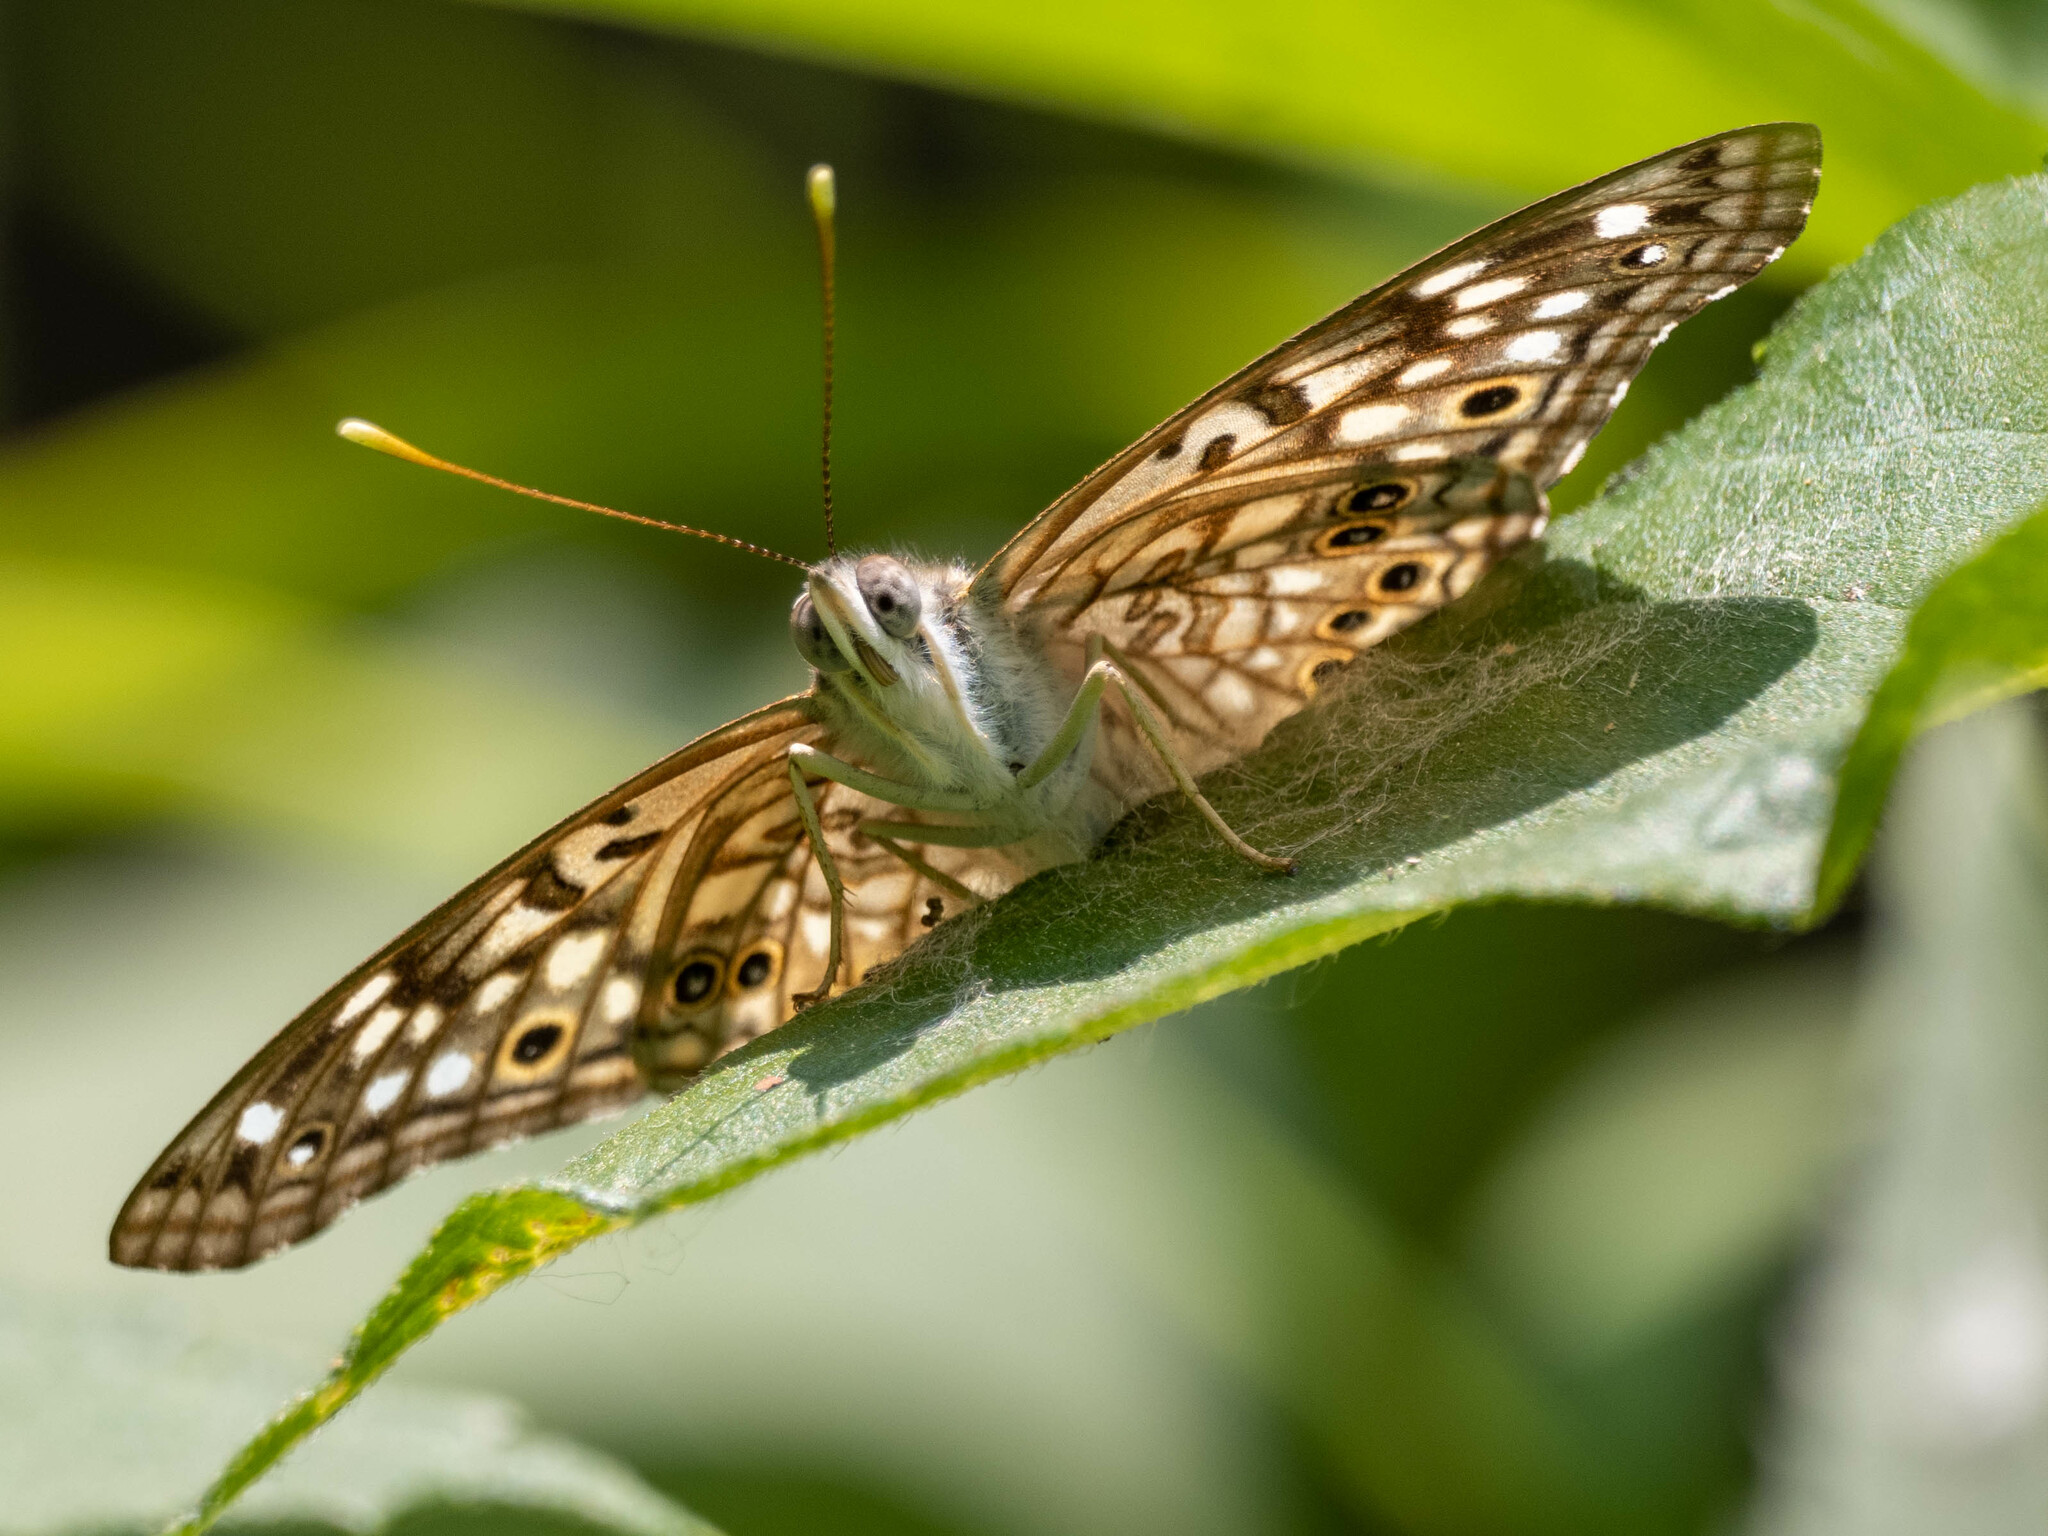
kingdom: Animalia
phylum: Arthropoda
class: Insecta
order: Lepidoptera
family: Nymphalidae
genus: Asterocampa
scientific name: Asterocampa celtis
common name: Hackberry emperor
